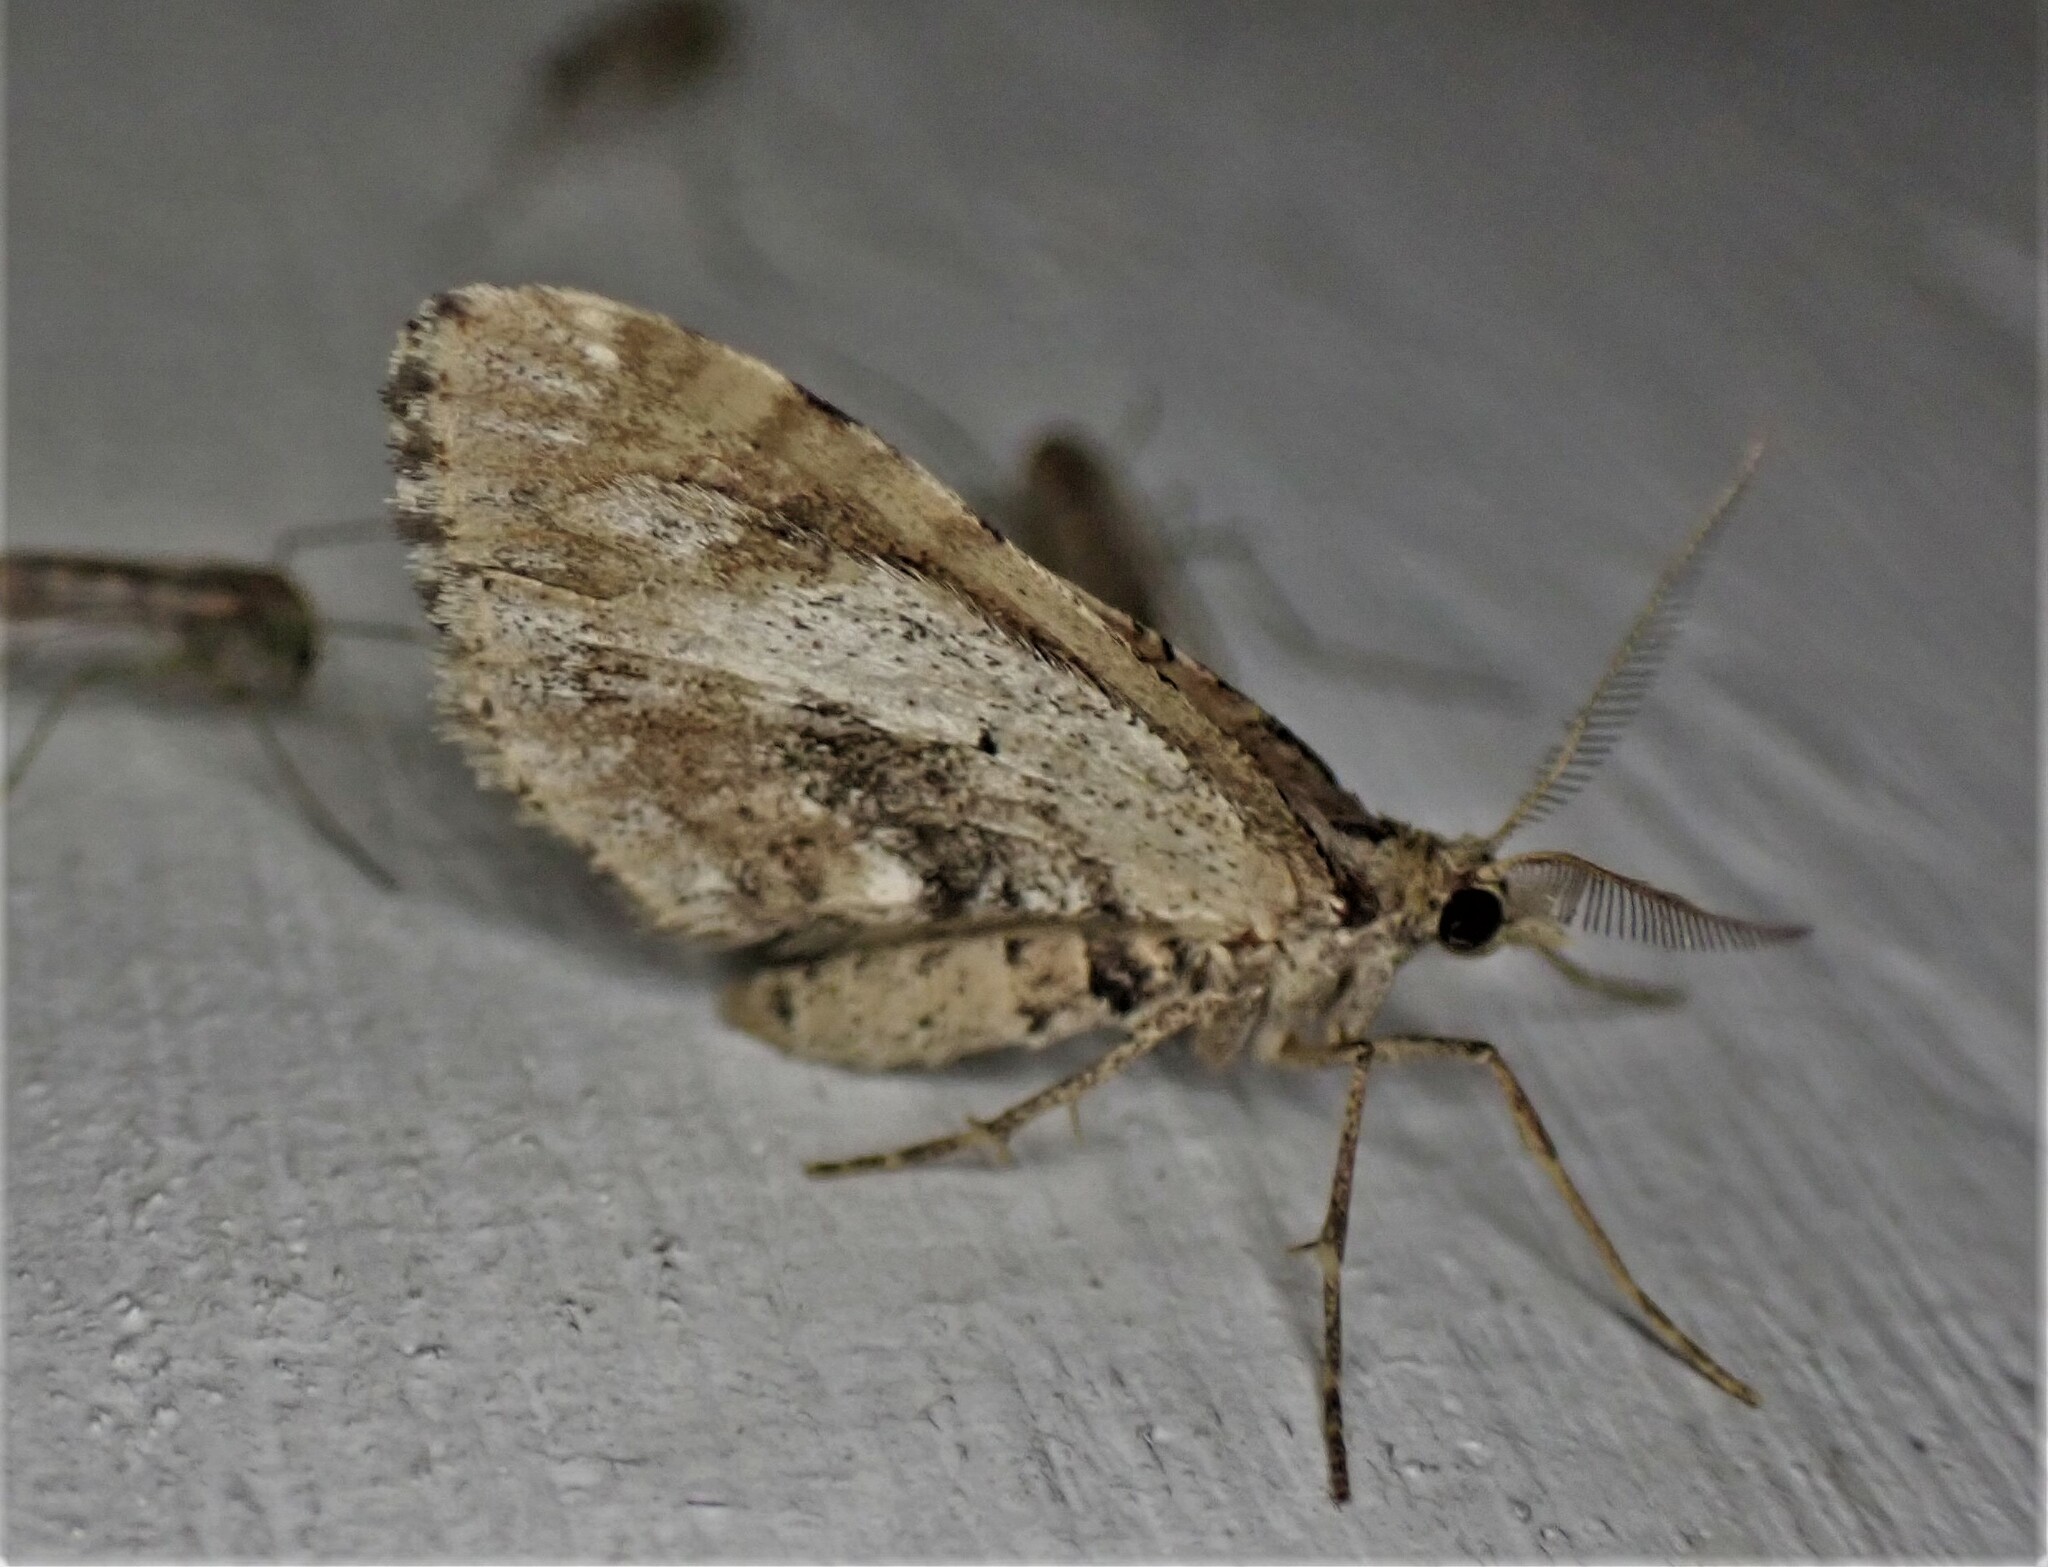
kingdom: Animalia
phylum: Arthropoda
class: Insecta
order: Lepidoptera
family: Geometridae
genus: Asaphodes
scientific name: Asaphodes aegrota
